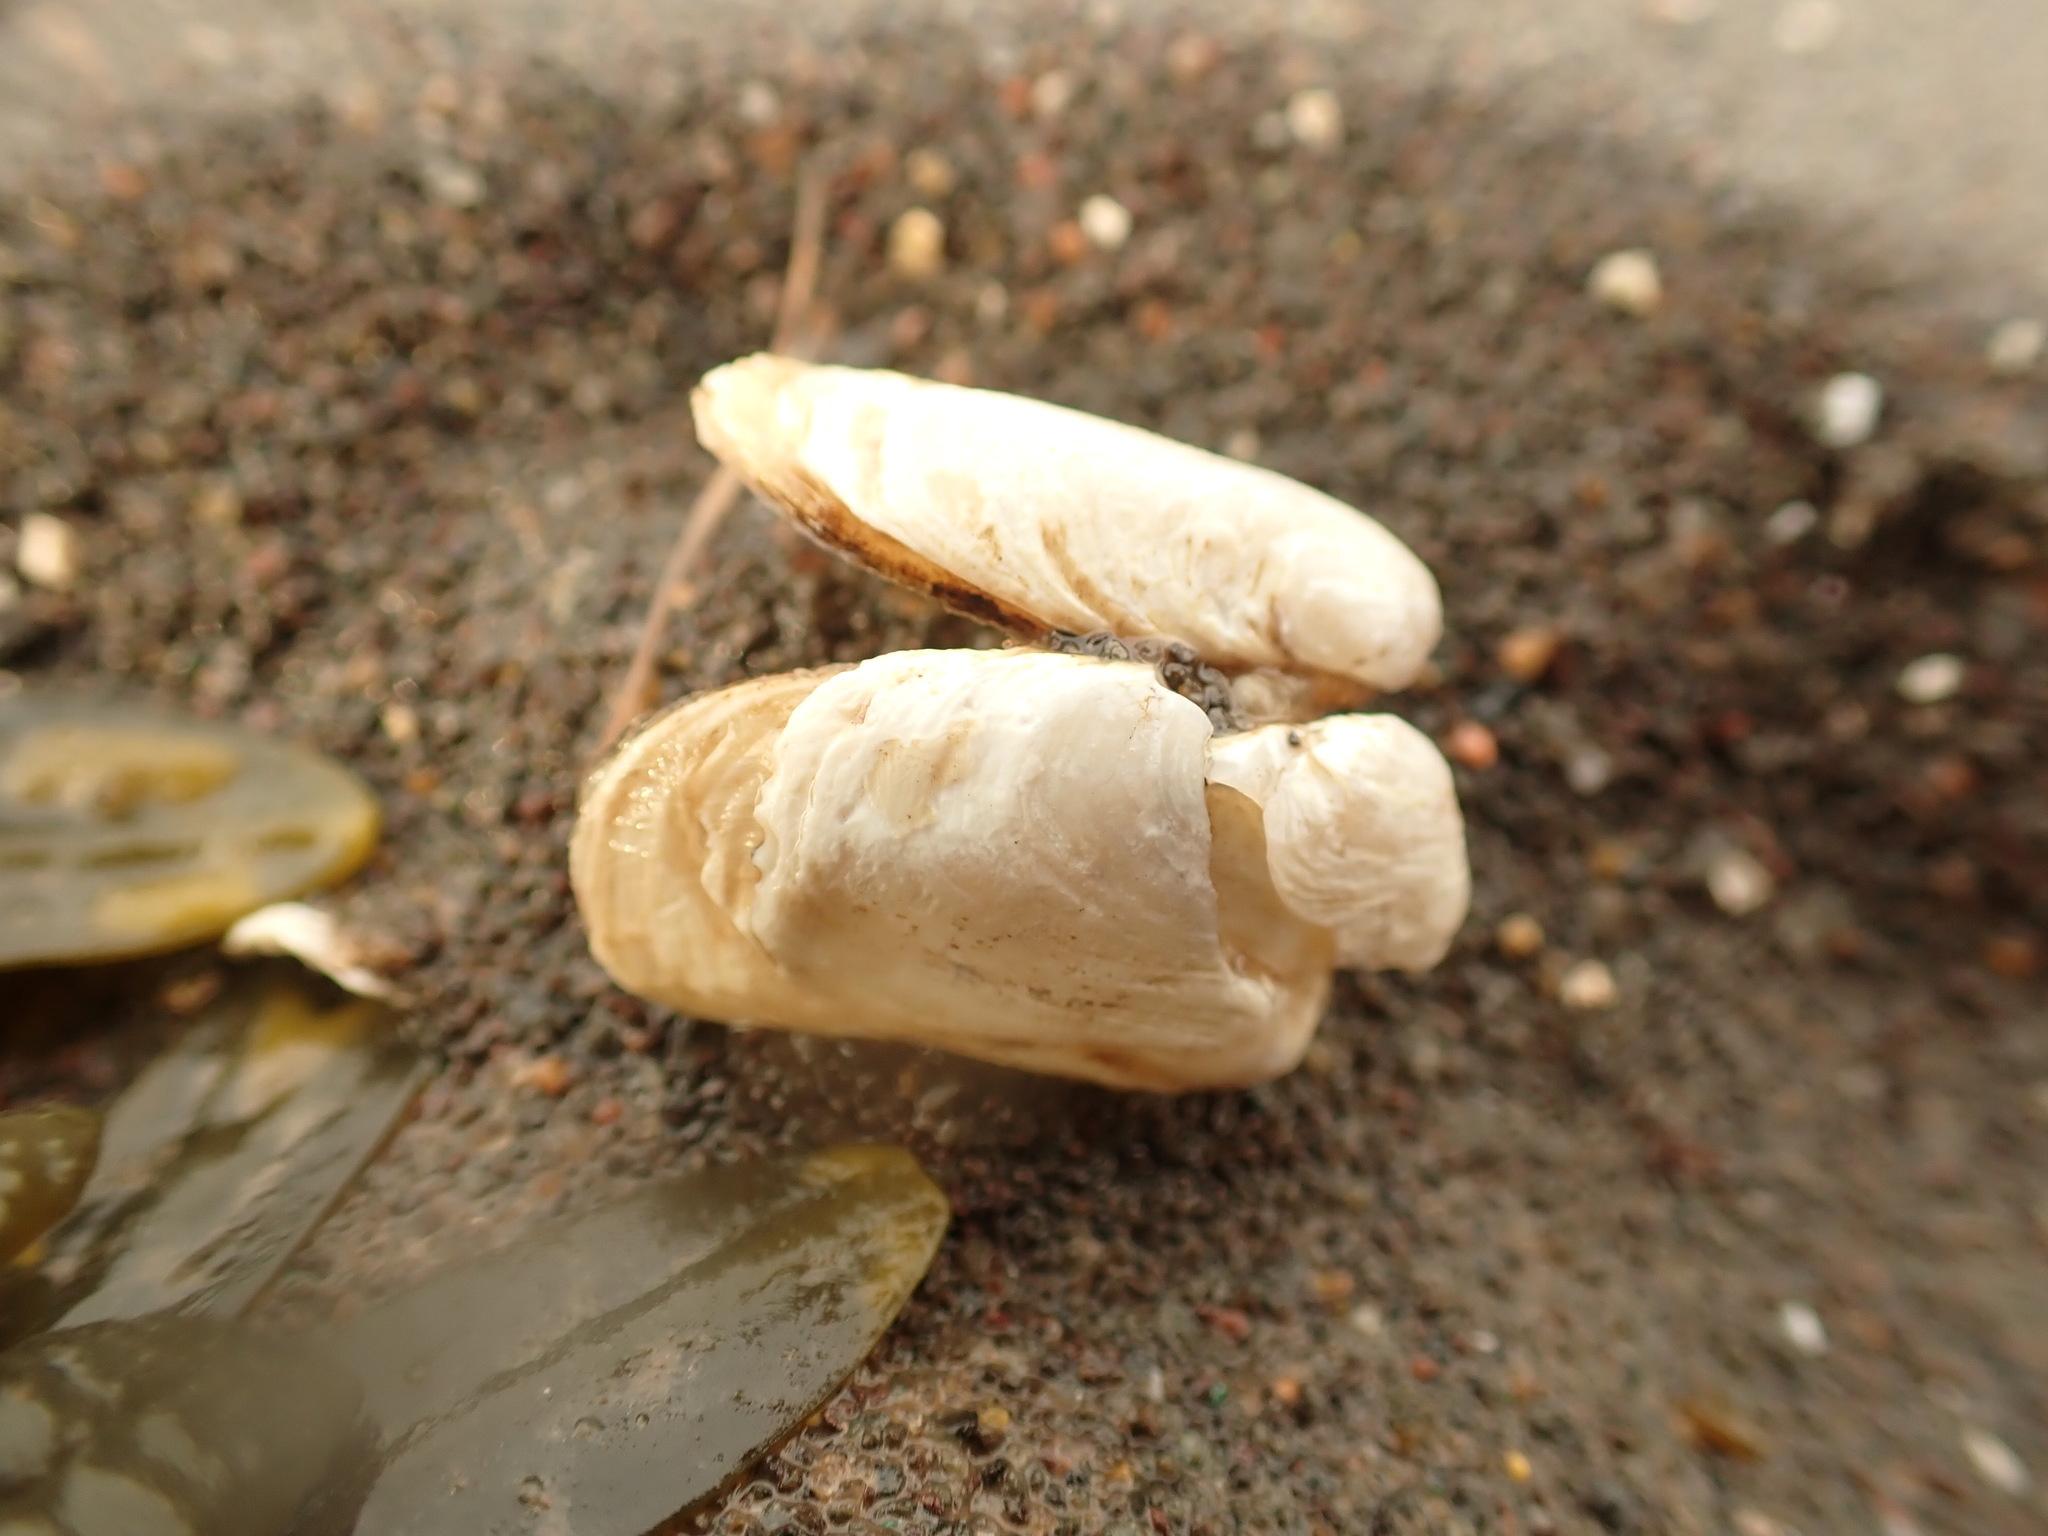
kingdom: Animalia
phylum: Mollusca
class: Bivalvia
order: Adapedonta
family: Hiatellidae
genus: Hiatella
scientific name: Hiatella arctica
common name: Arctic hiatella
